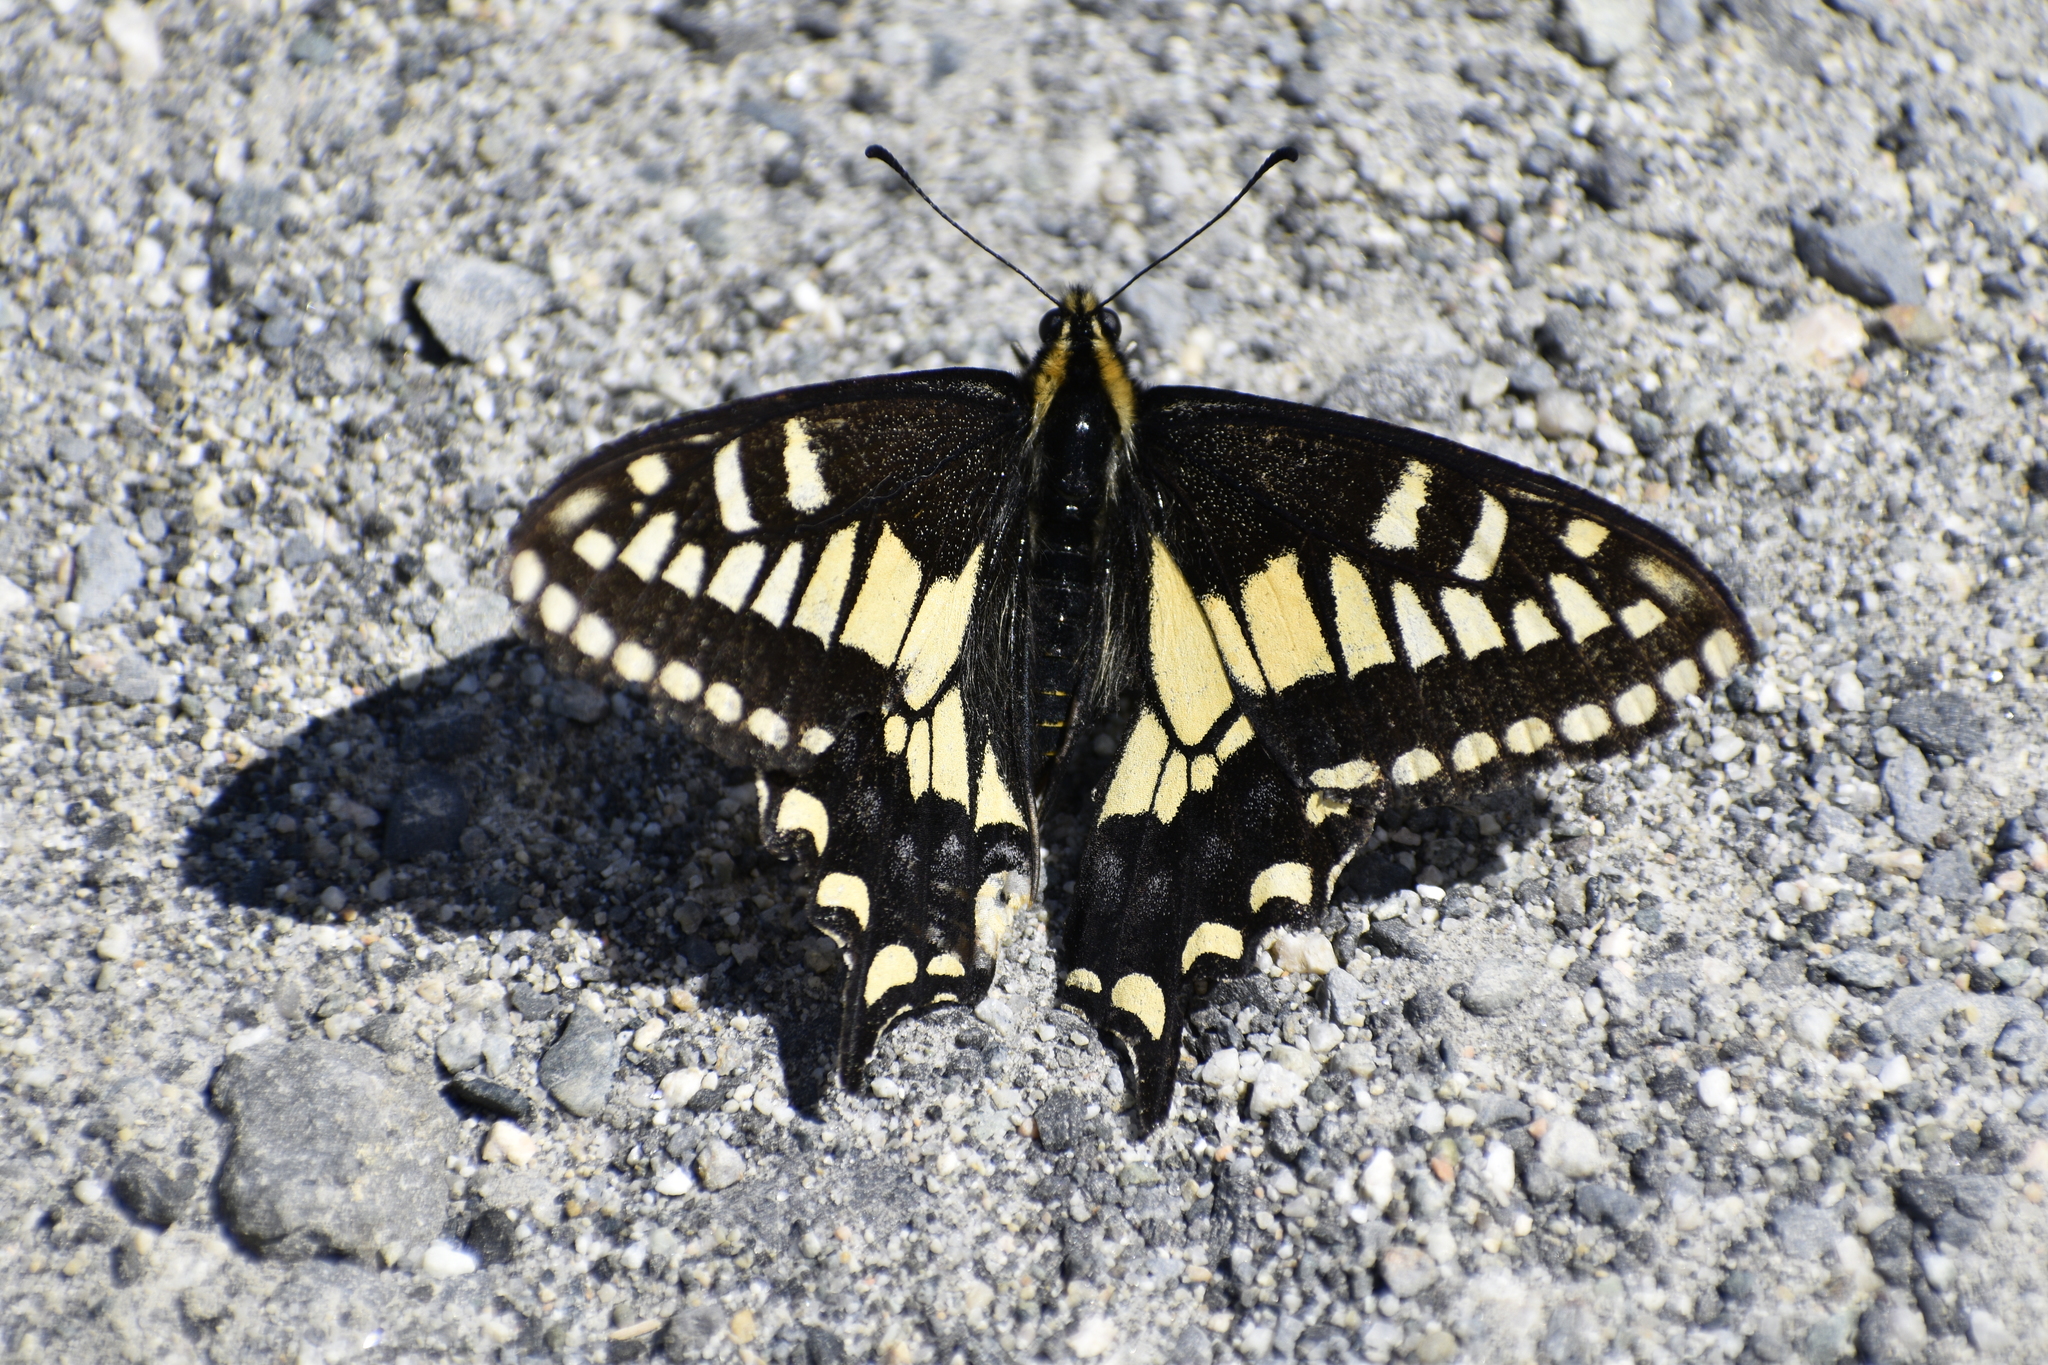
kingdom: Animalia
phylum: Arthropoda
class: Insecta
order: Lepidoptera
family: Papilionidae
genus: Papilio
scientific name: Papilio zelicaon
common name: Anise swallowtail
